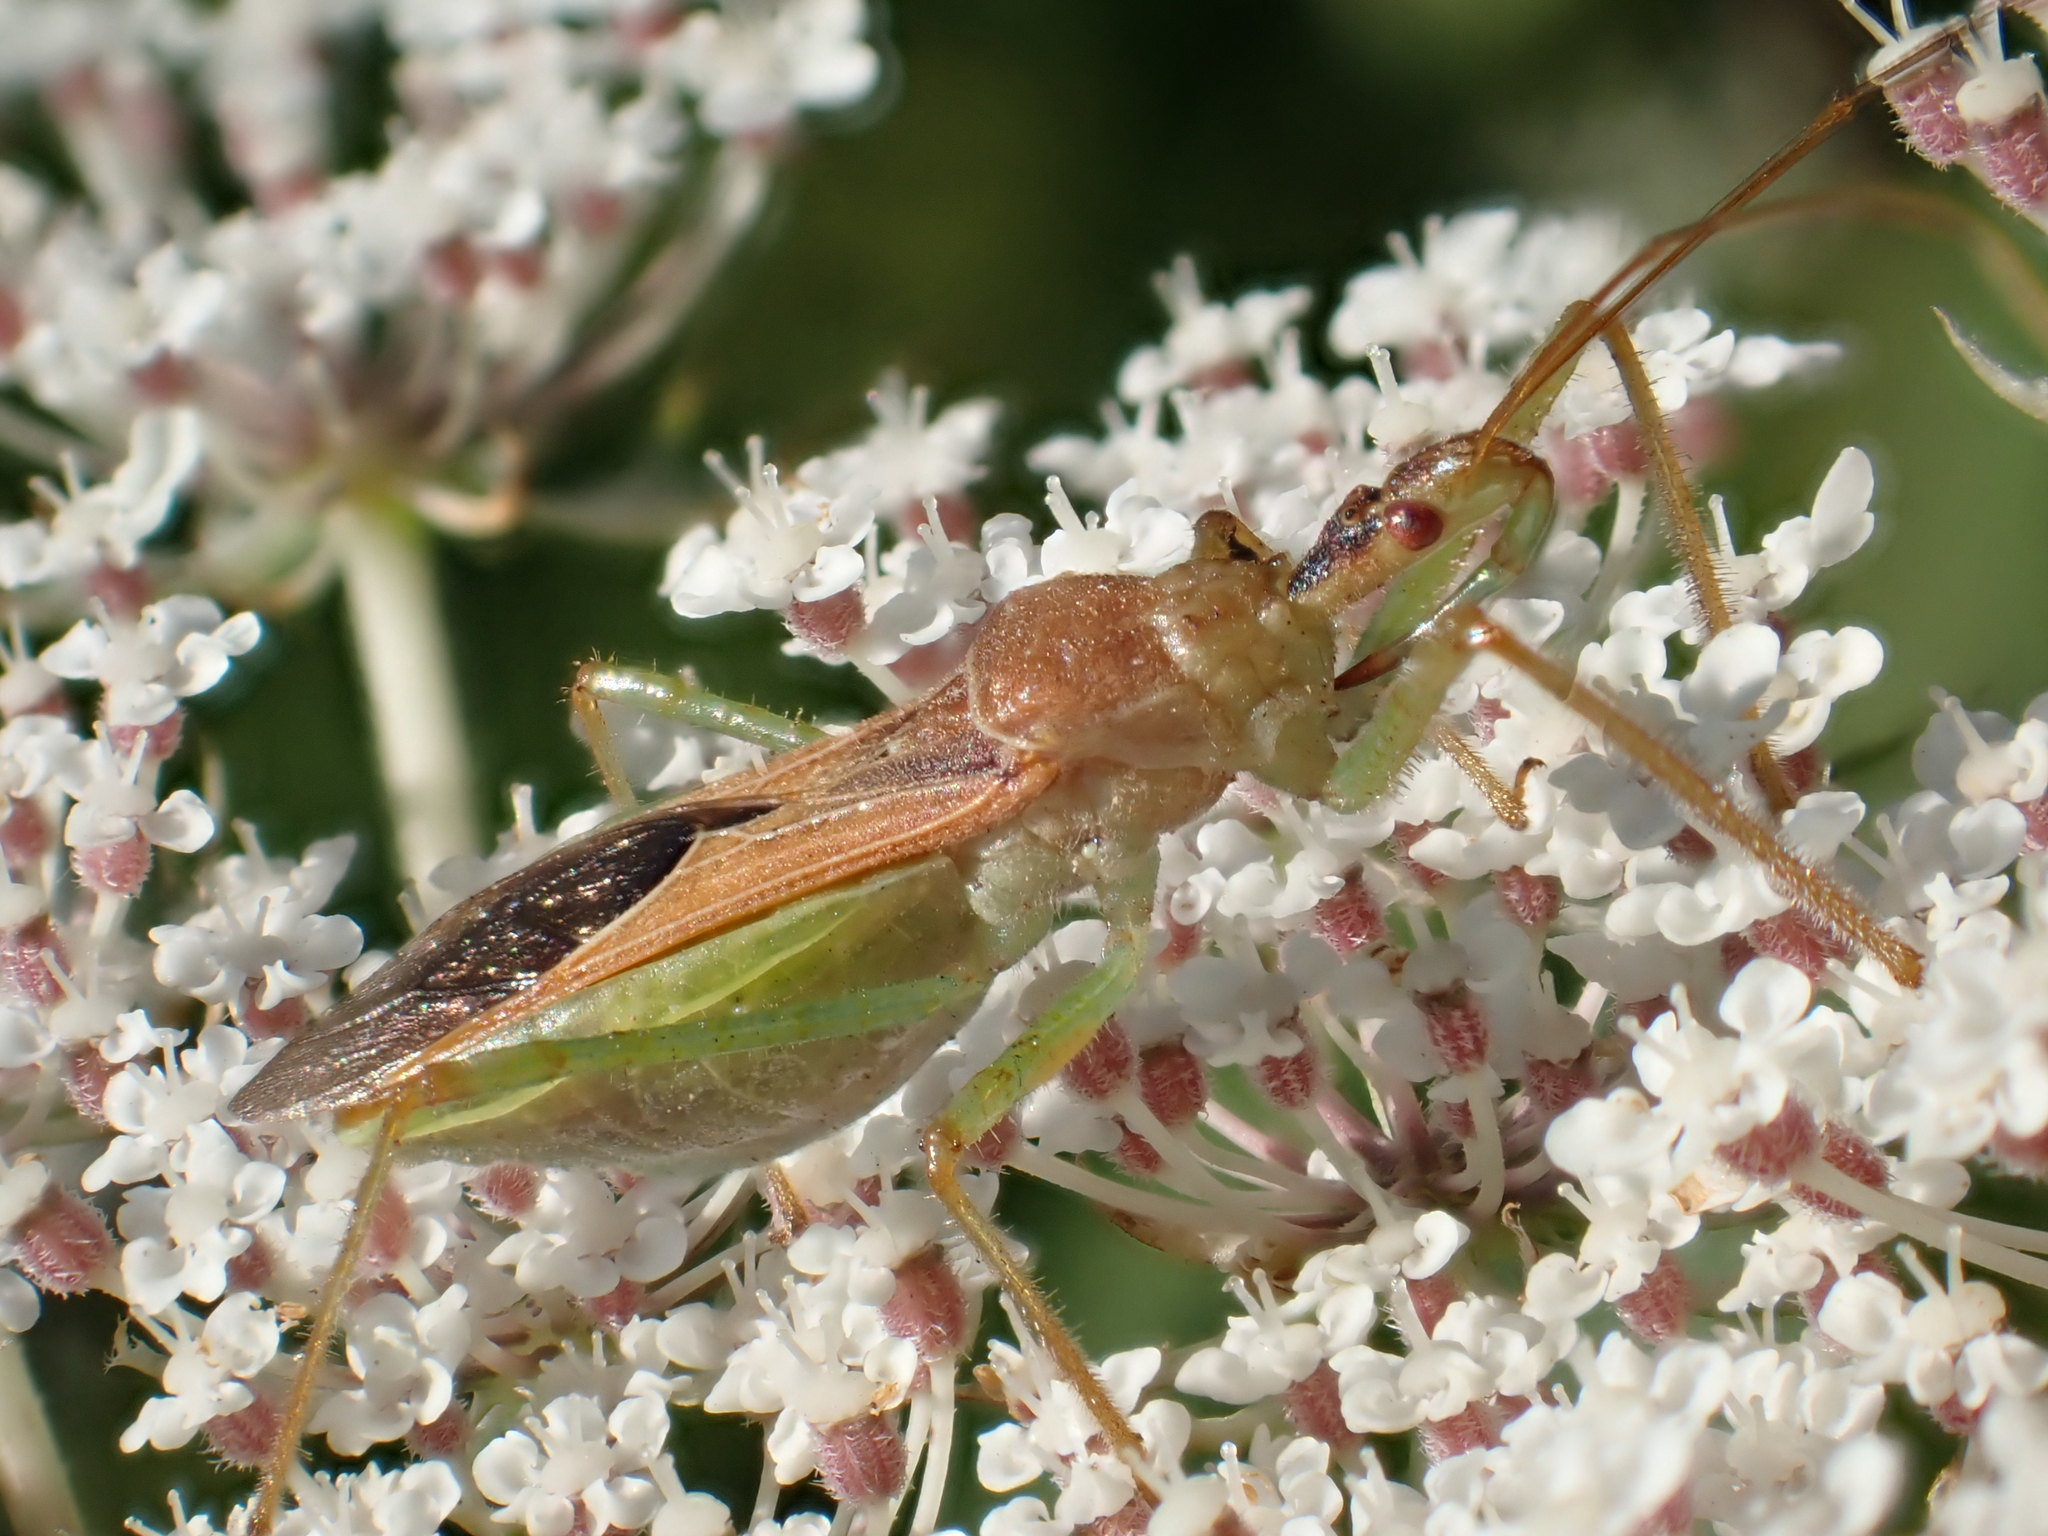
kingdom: Animalia
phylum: Arthropoda
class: Insecta
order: Hemiptera
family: Reduviidae
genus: Zelus
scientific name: Zelus renardii
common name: Assassin bug
